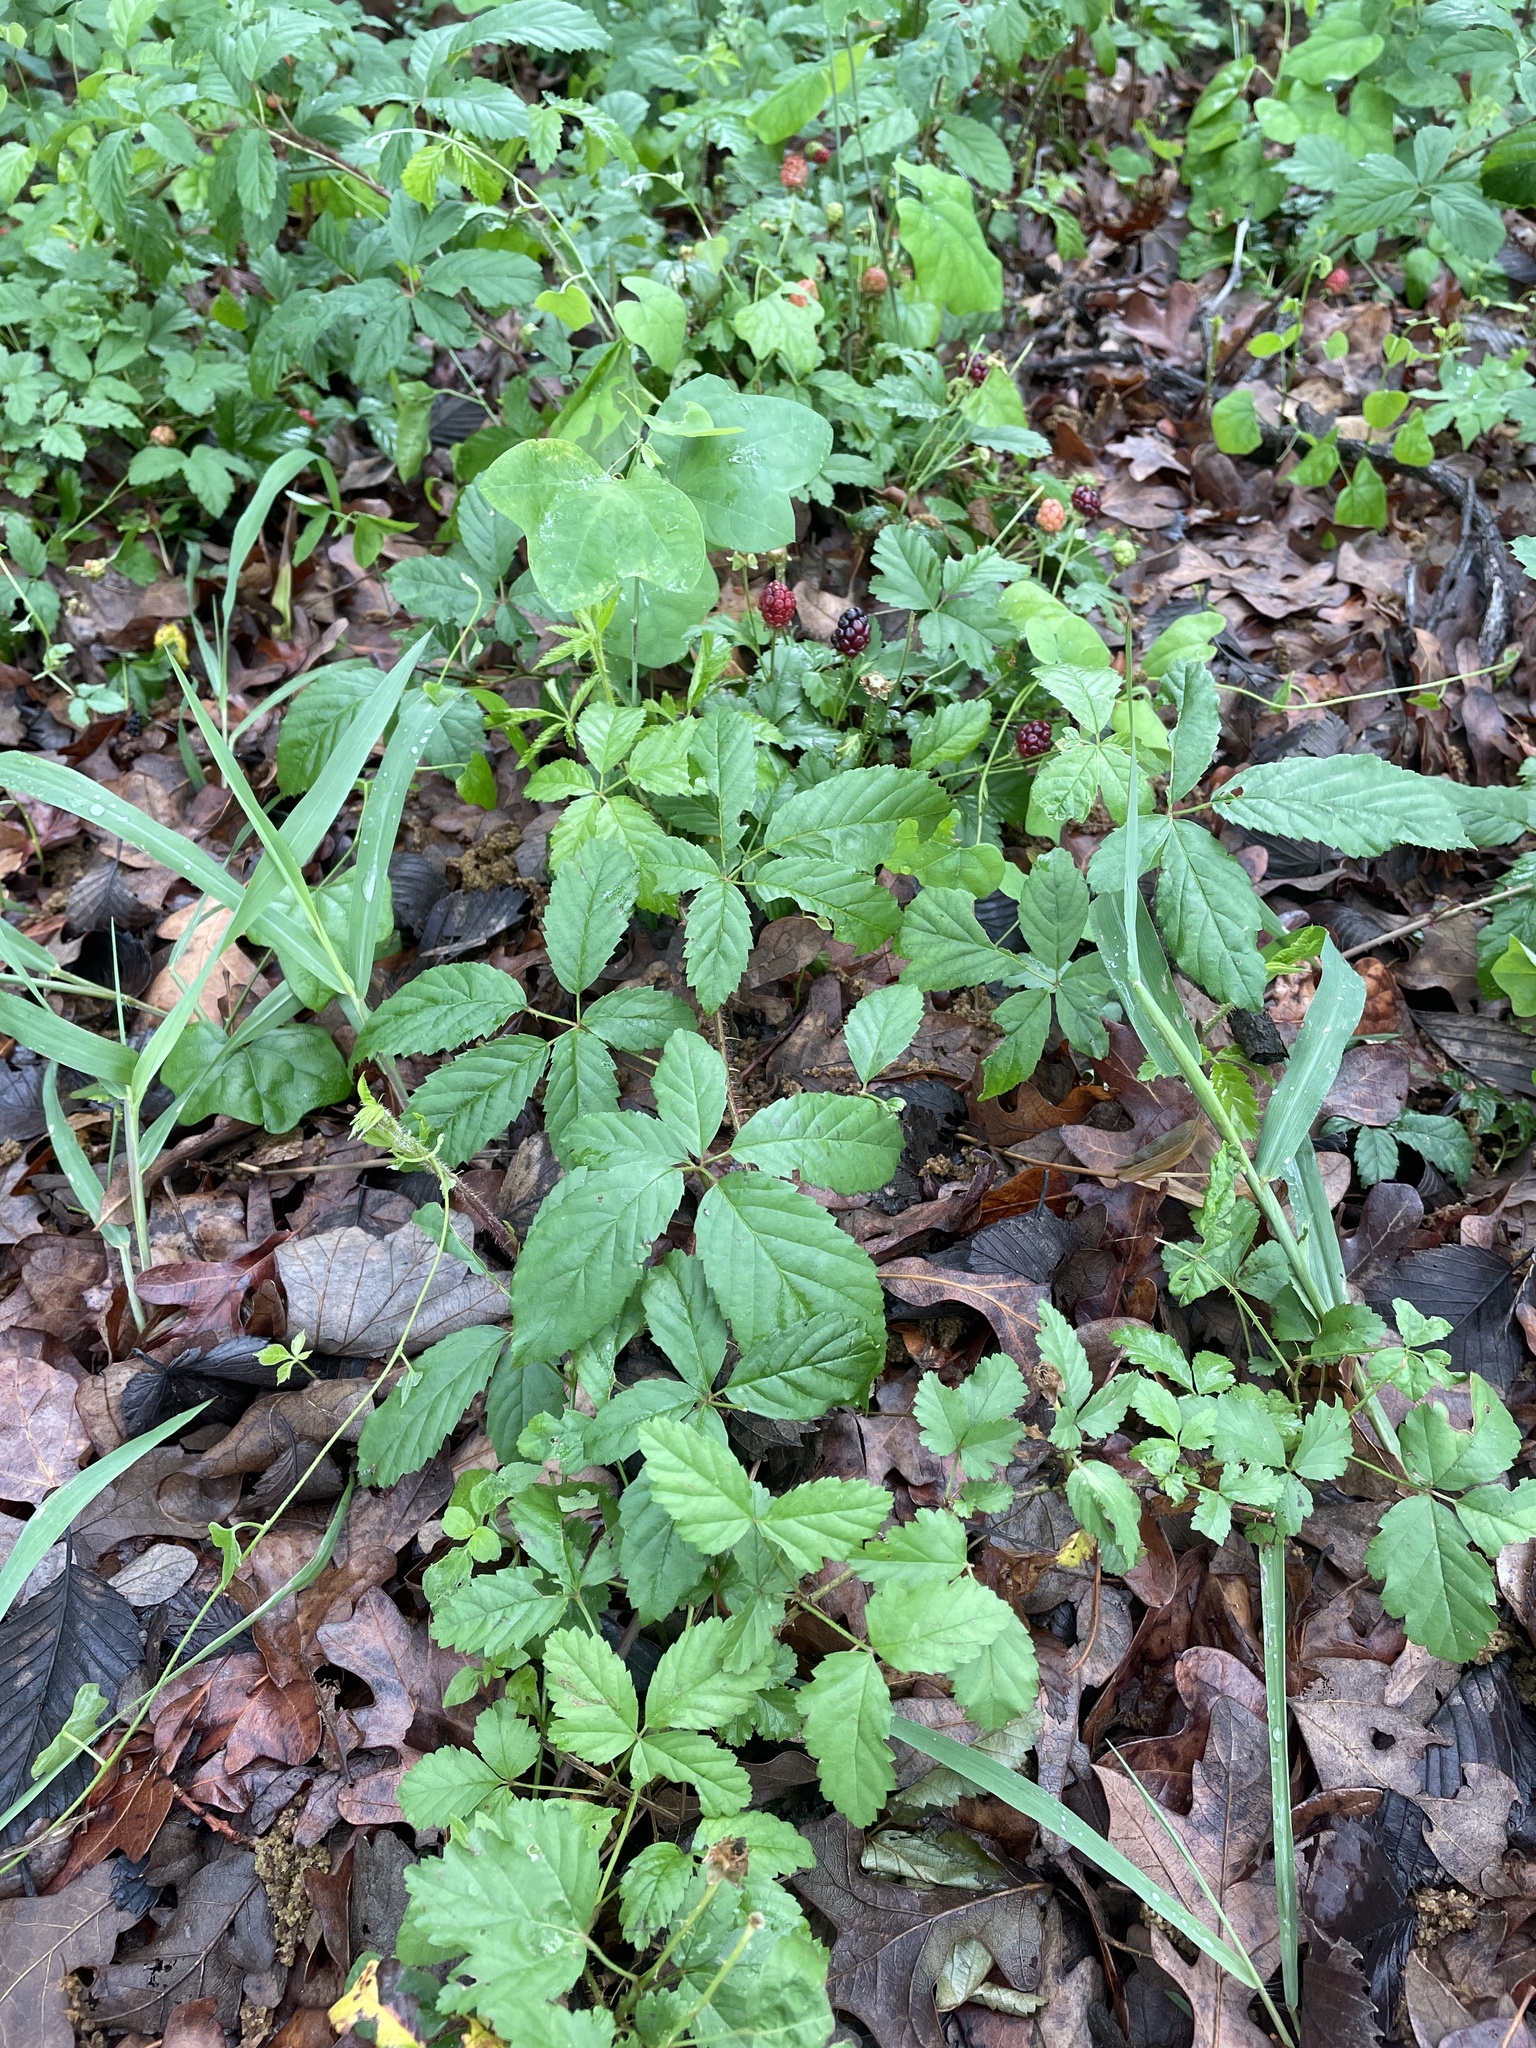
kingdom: Plantae
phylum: Tracheophyta
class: Magnoliopsida
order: Rosales
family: Rosaceae
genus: Rubus
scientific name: Rubus trivialis
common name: Southern dewberry
